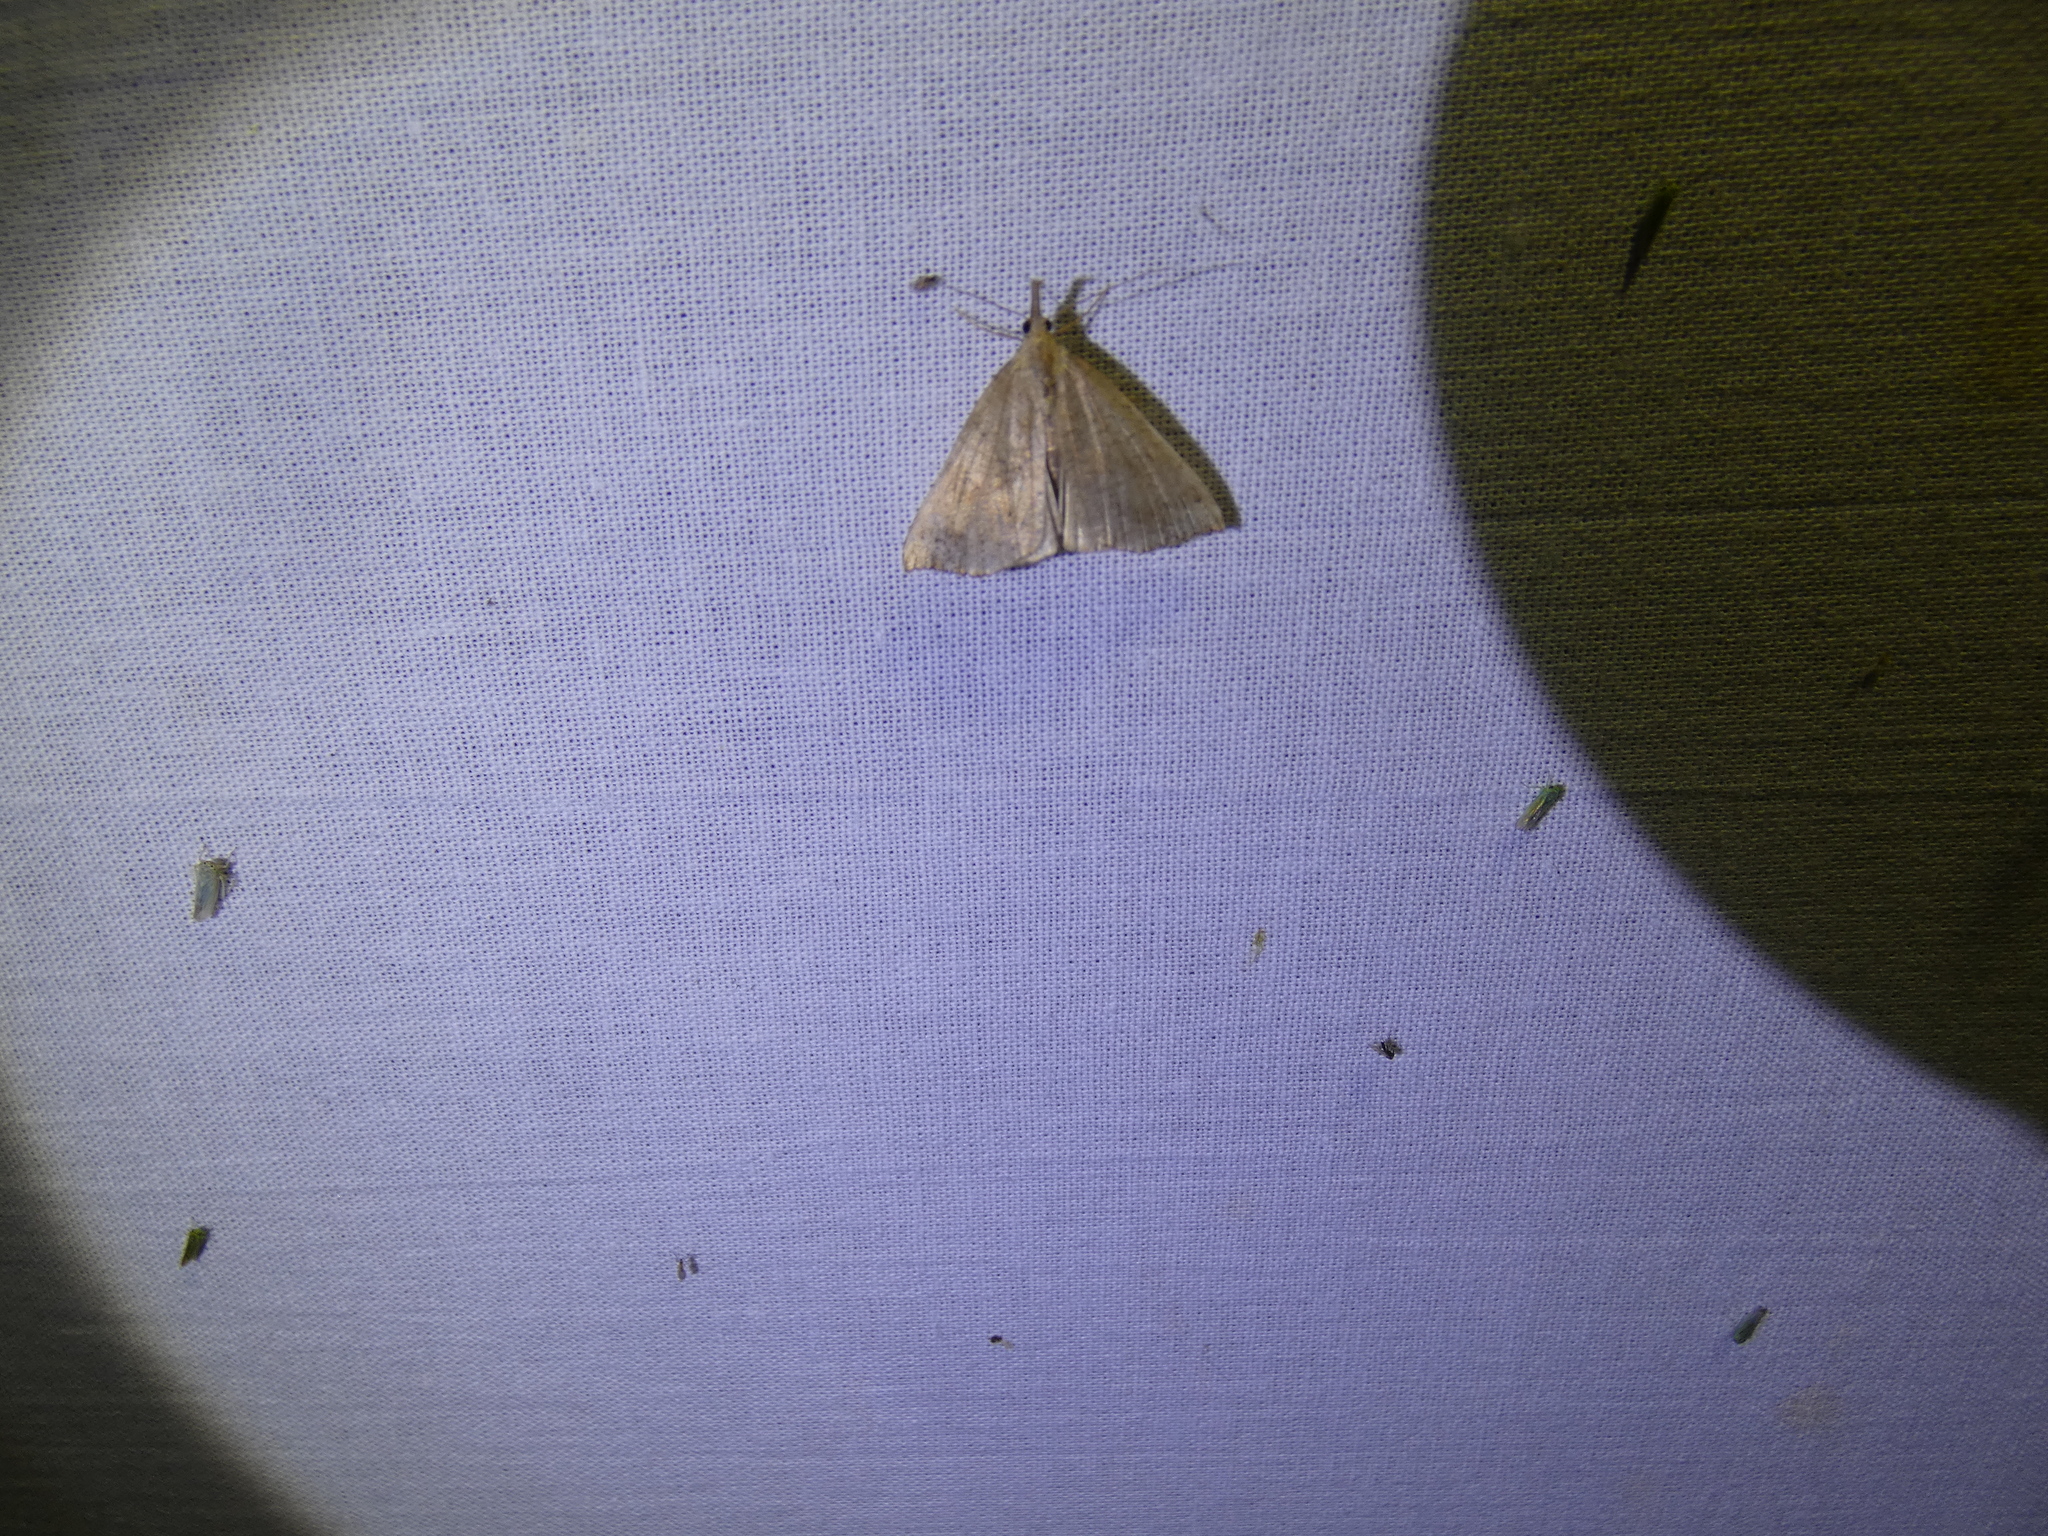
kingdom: Animalia
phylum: Arthropoda
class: Insecta
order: Lepidoptera
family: Erebidae
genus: Hypena
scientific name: Hypena proboscidalis
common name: Snout
